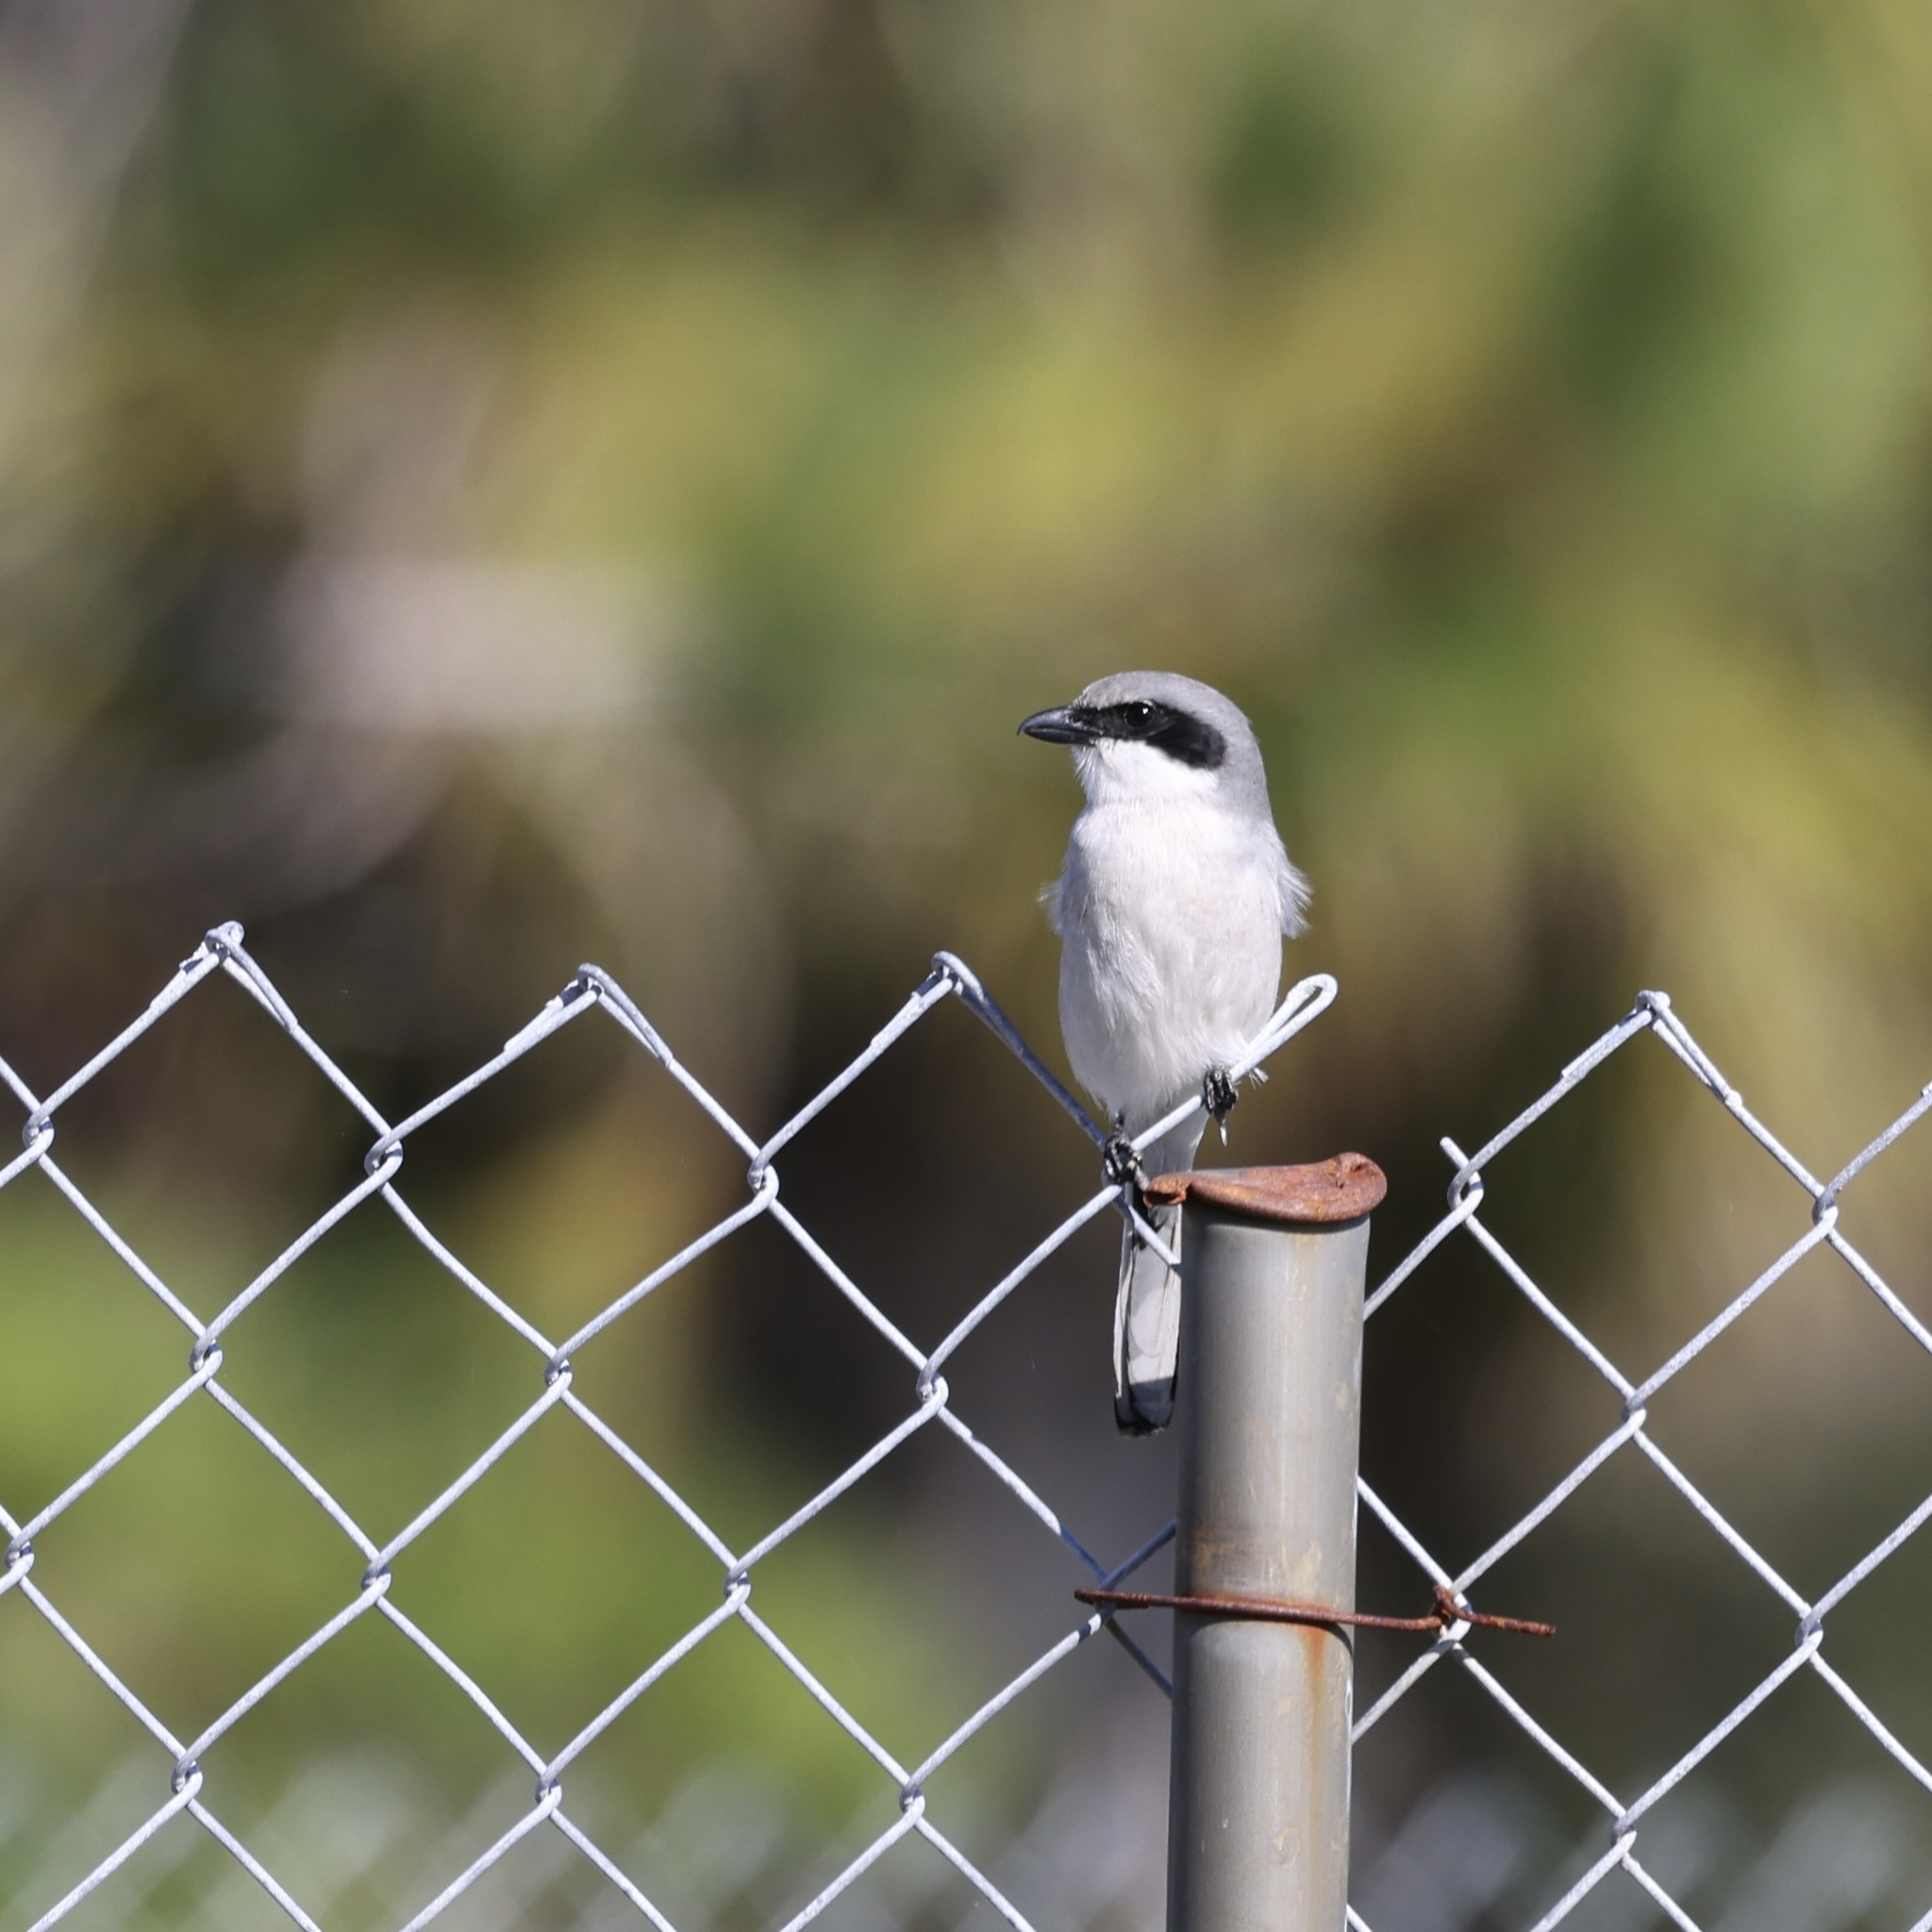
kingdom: Animalia
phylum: Chordata
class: Aves
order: Passeriformes
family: Laniidae
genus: Lanius
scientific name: Lanius ludovicianus
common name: Loggerhead shrike
